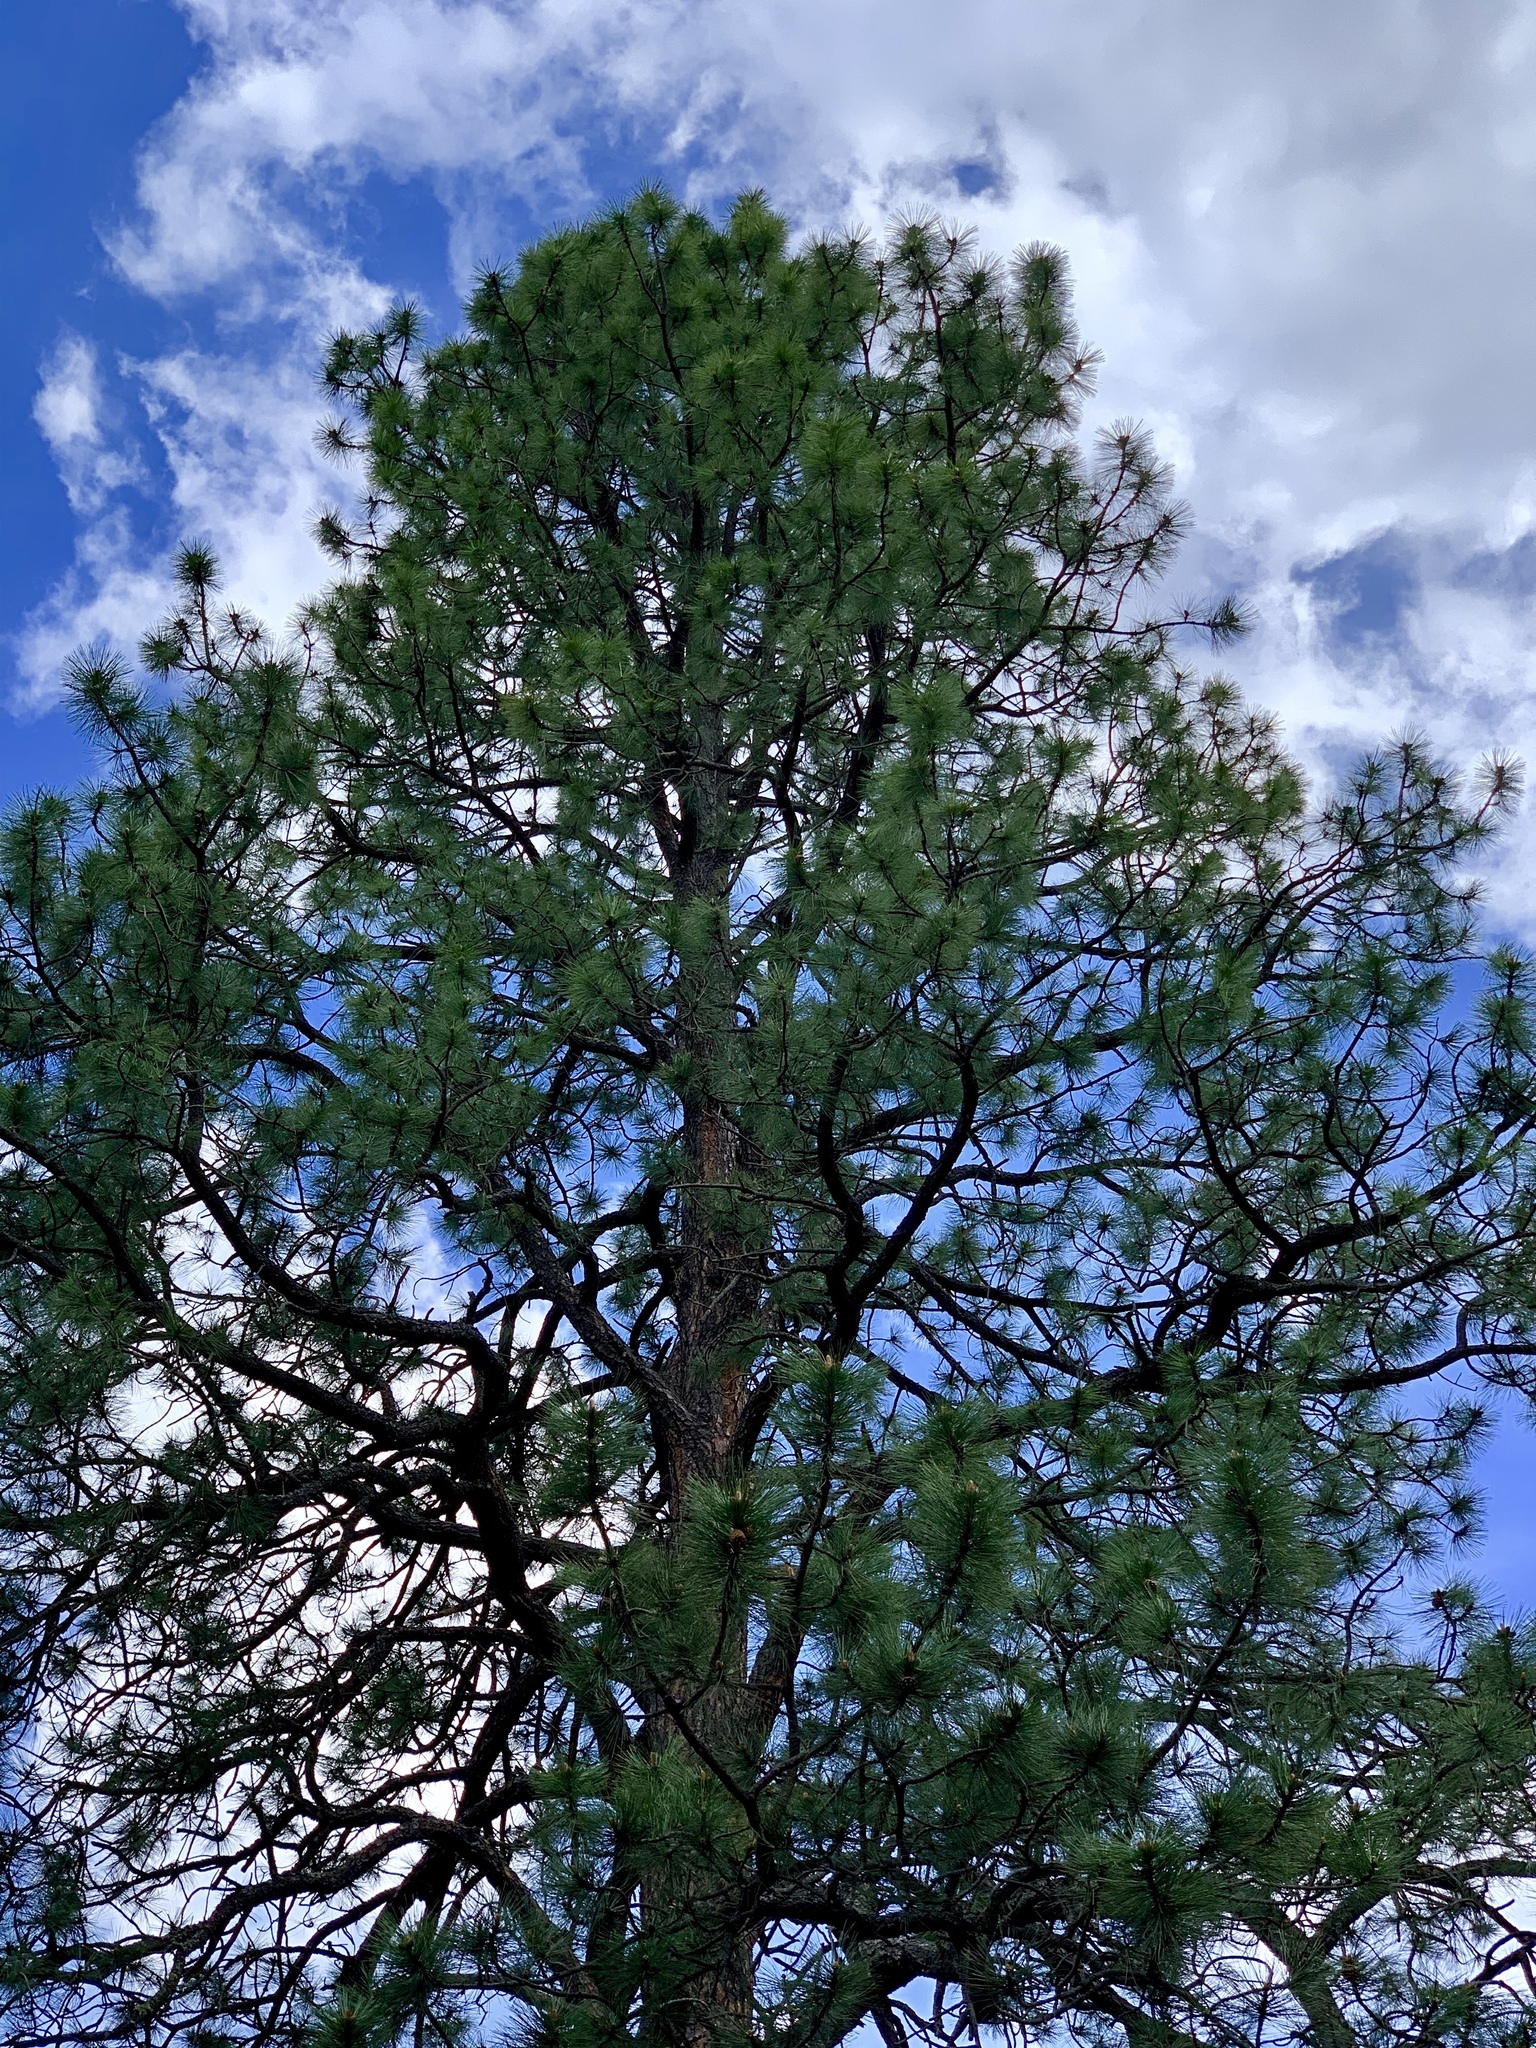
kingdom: Plantae
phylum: Tracheophyta
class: Pinopsida
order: Pinales
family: Pinaceae
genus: Pinus
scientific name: Pinus ponderosa
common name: Western yellow-pine
